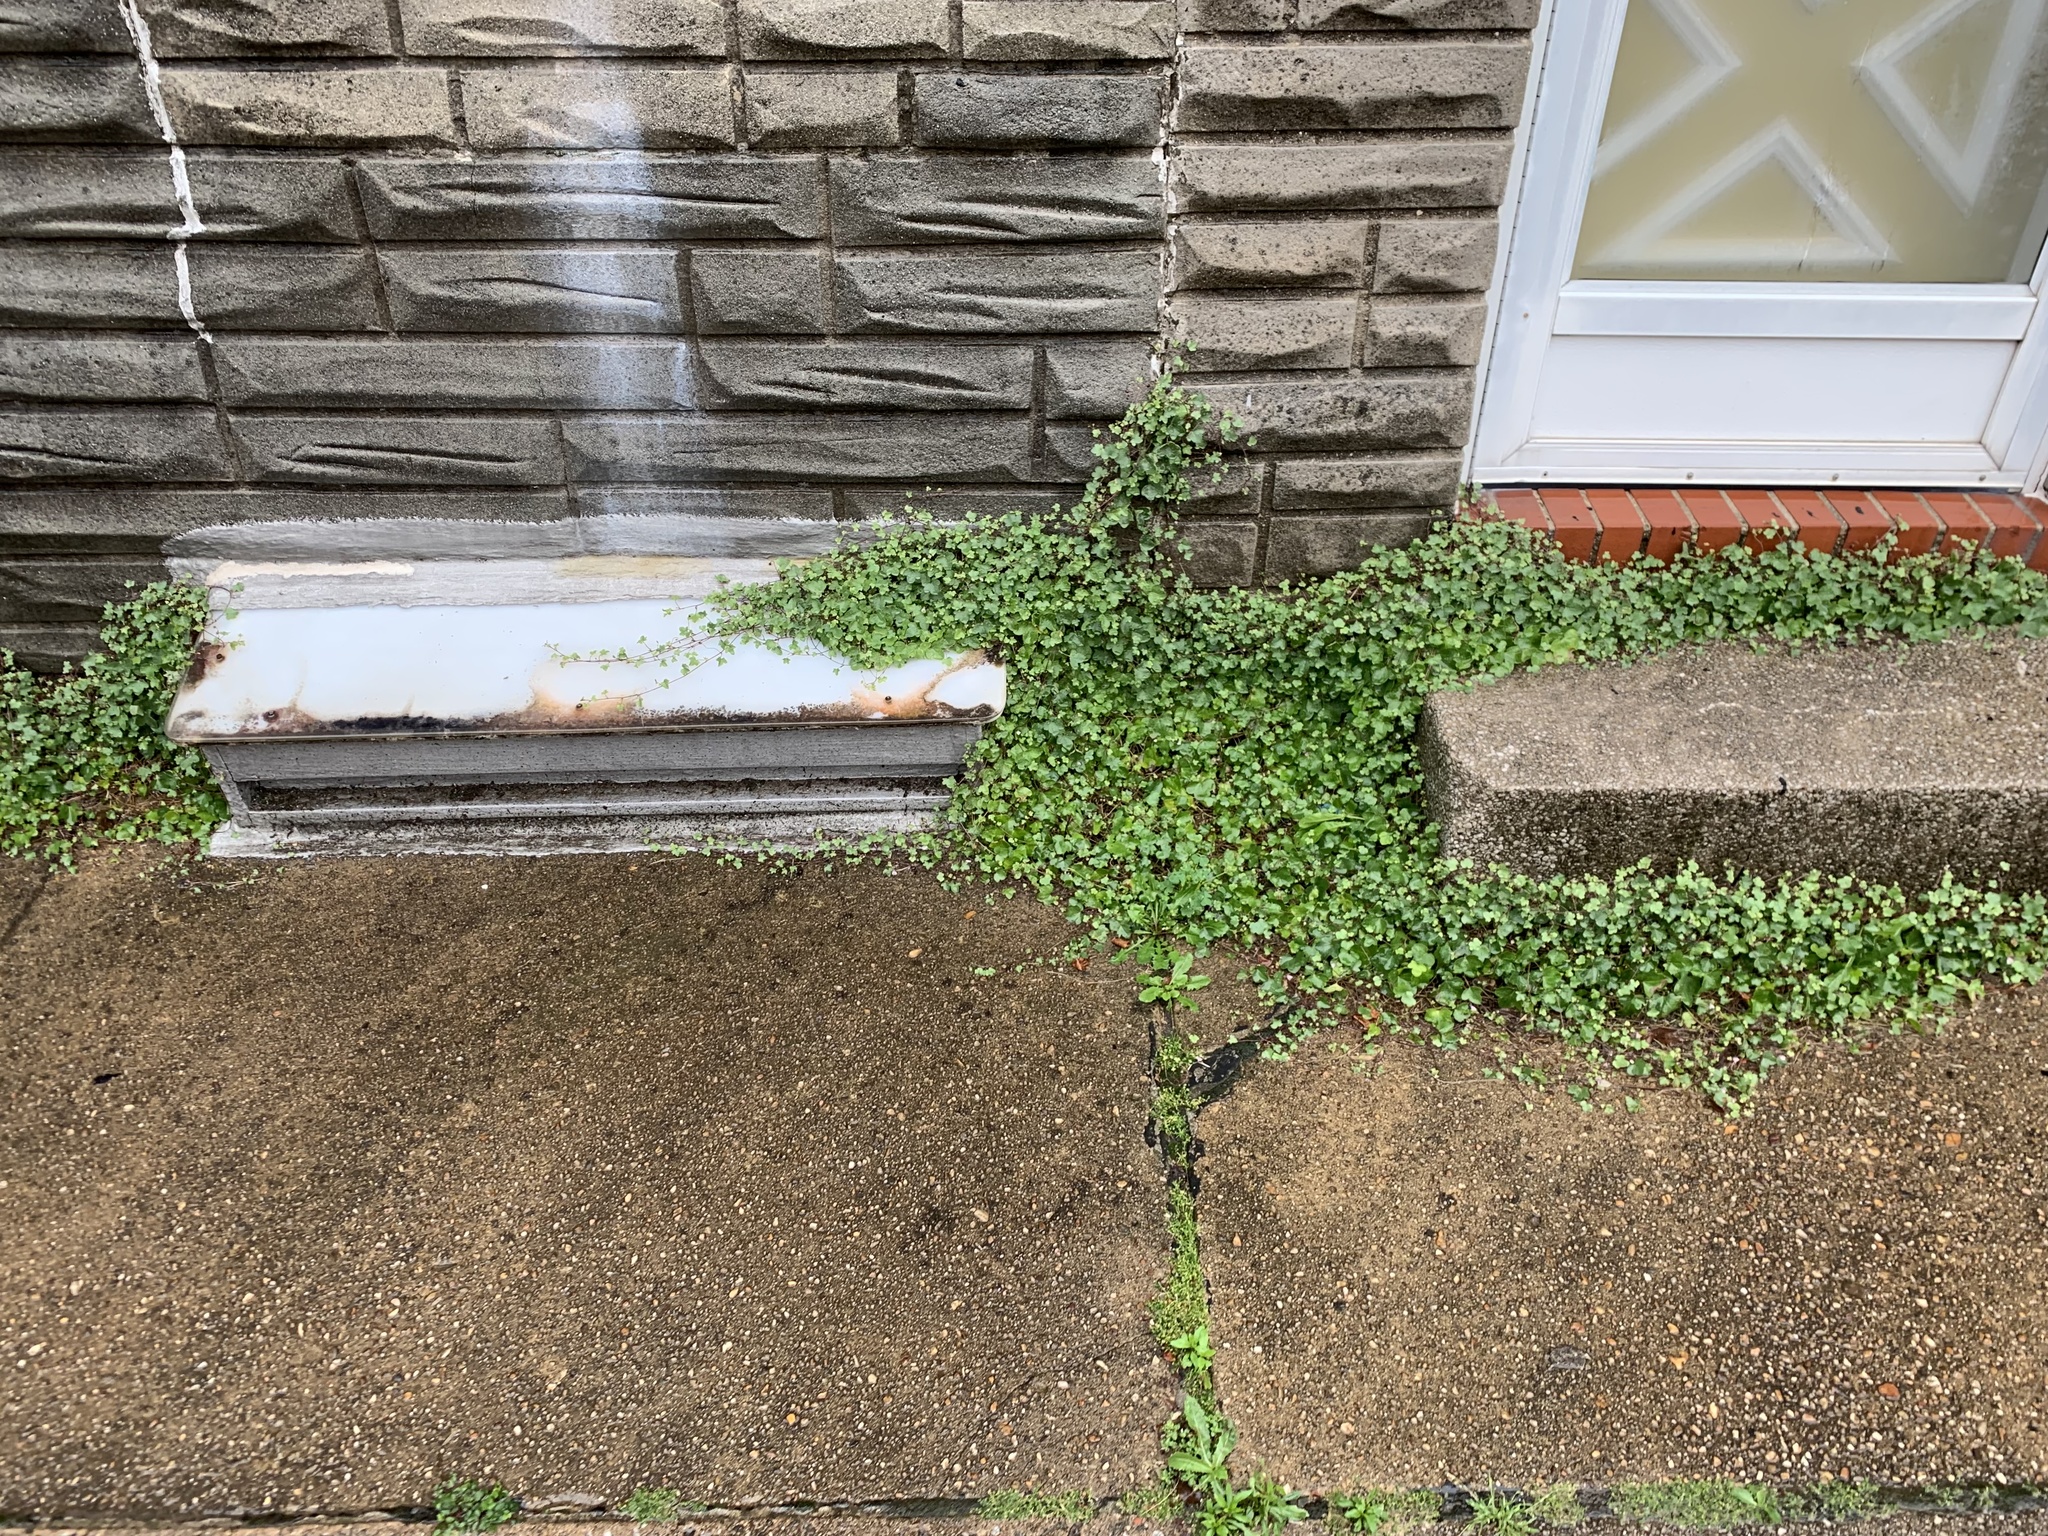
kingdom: Plantae
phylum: Tracheophyta
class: Magnoliopsida
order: Lamiales
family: Plantaginaceae
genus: Cymbalaria
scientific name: Cymbalaria muralis
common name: Ivy-leaved toadflax
